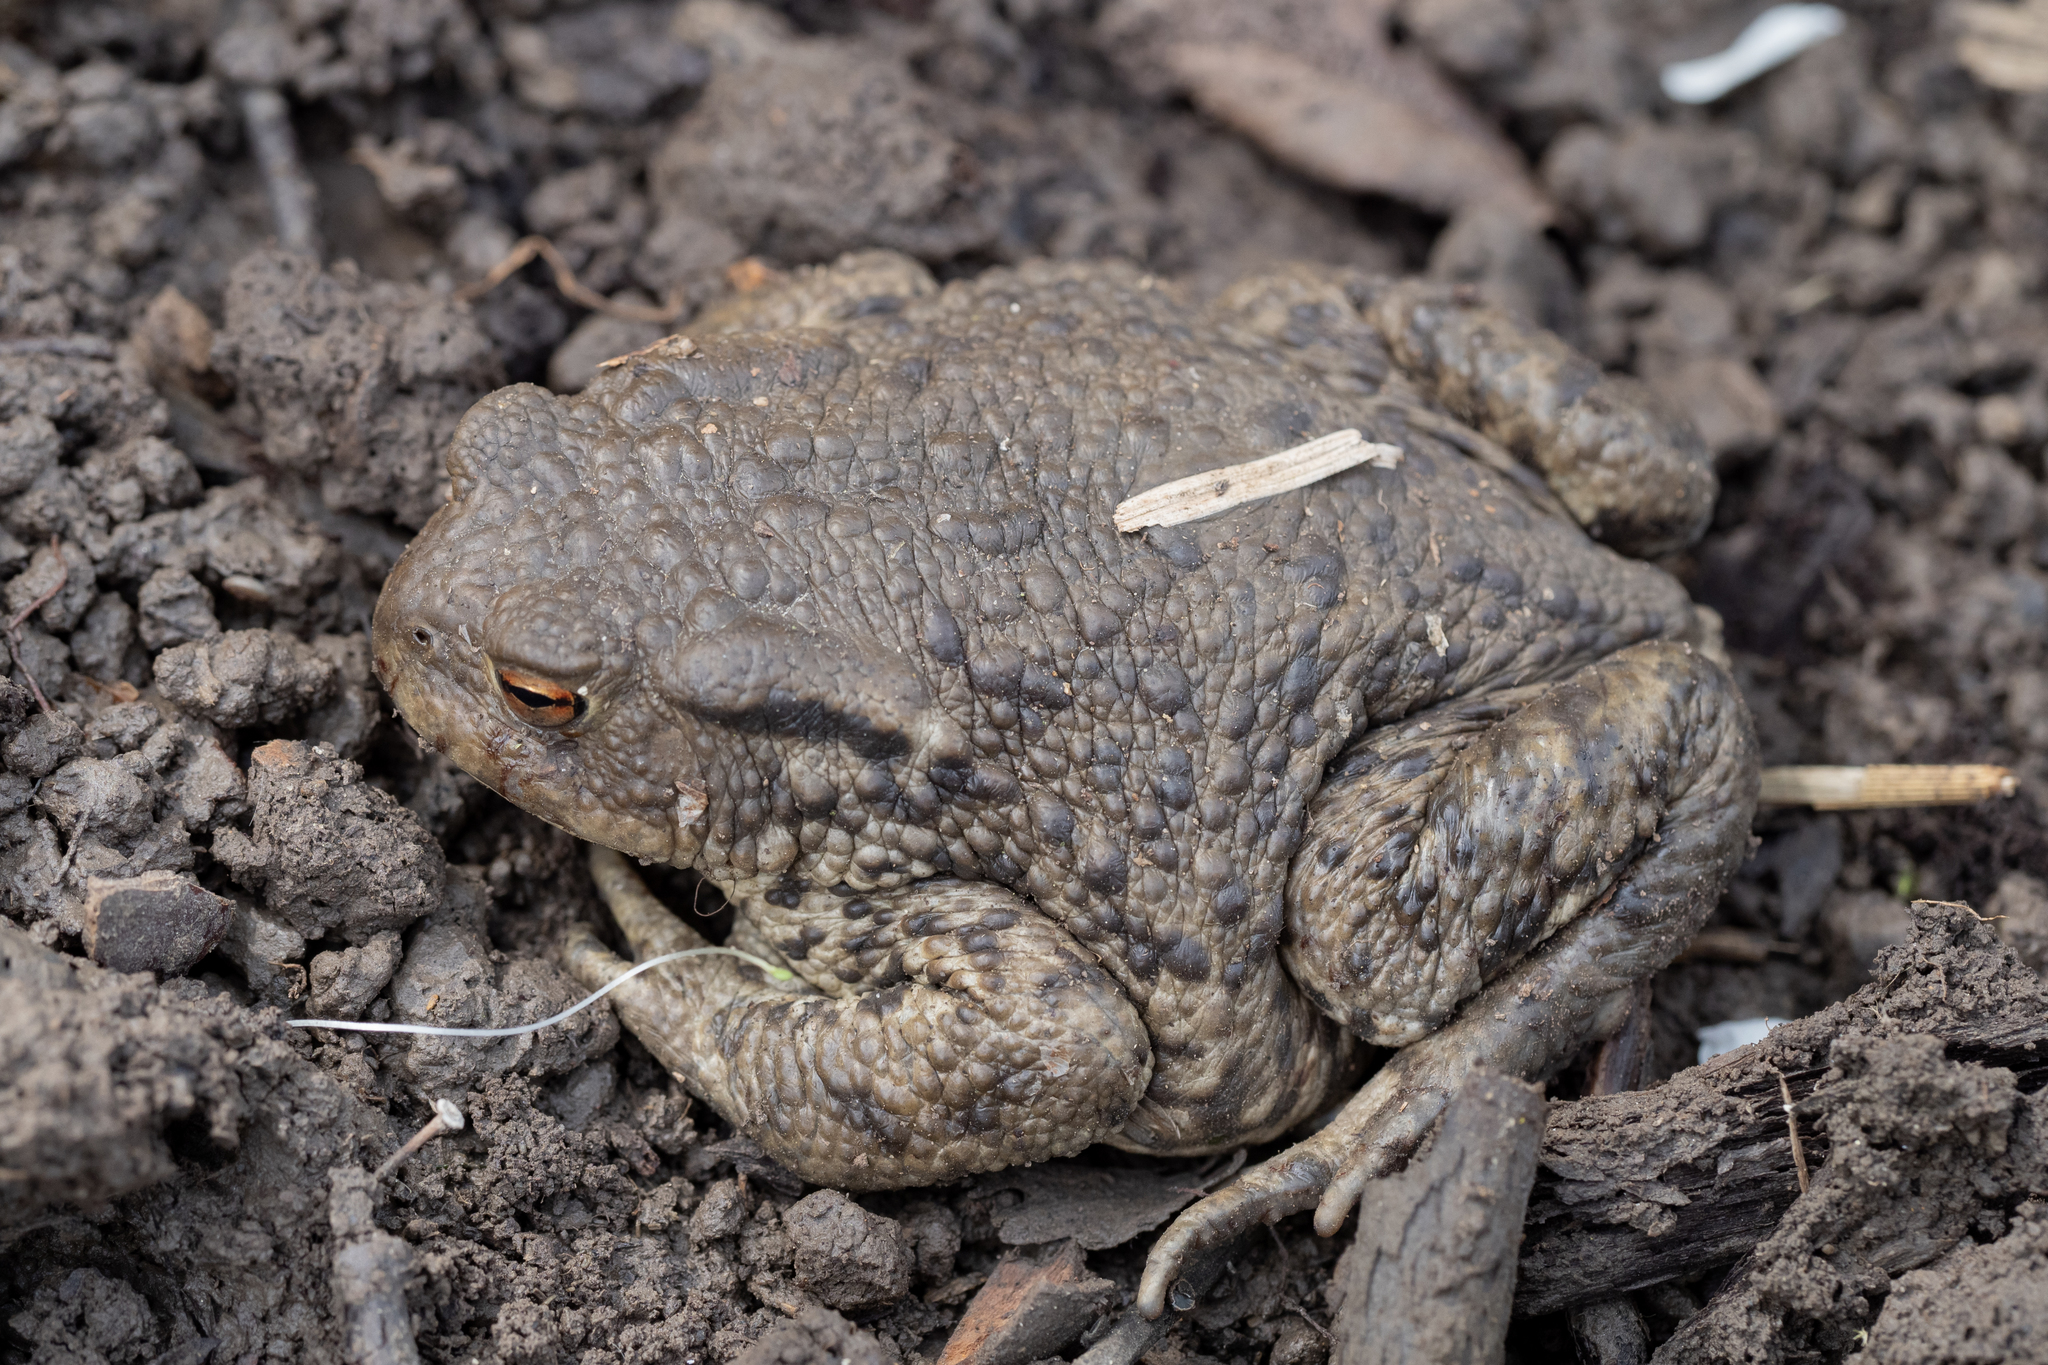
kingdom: Animalia
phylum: Chordata
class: Amphibia
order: Anura
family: Bufonidae
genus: Bufo
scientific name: Bufo bufo
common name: Common toad
